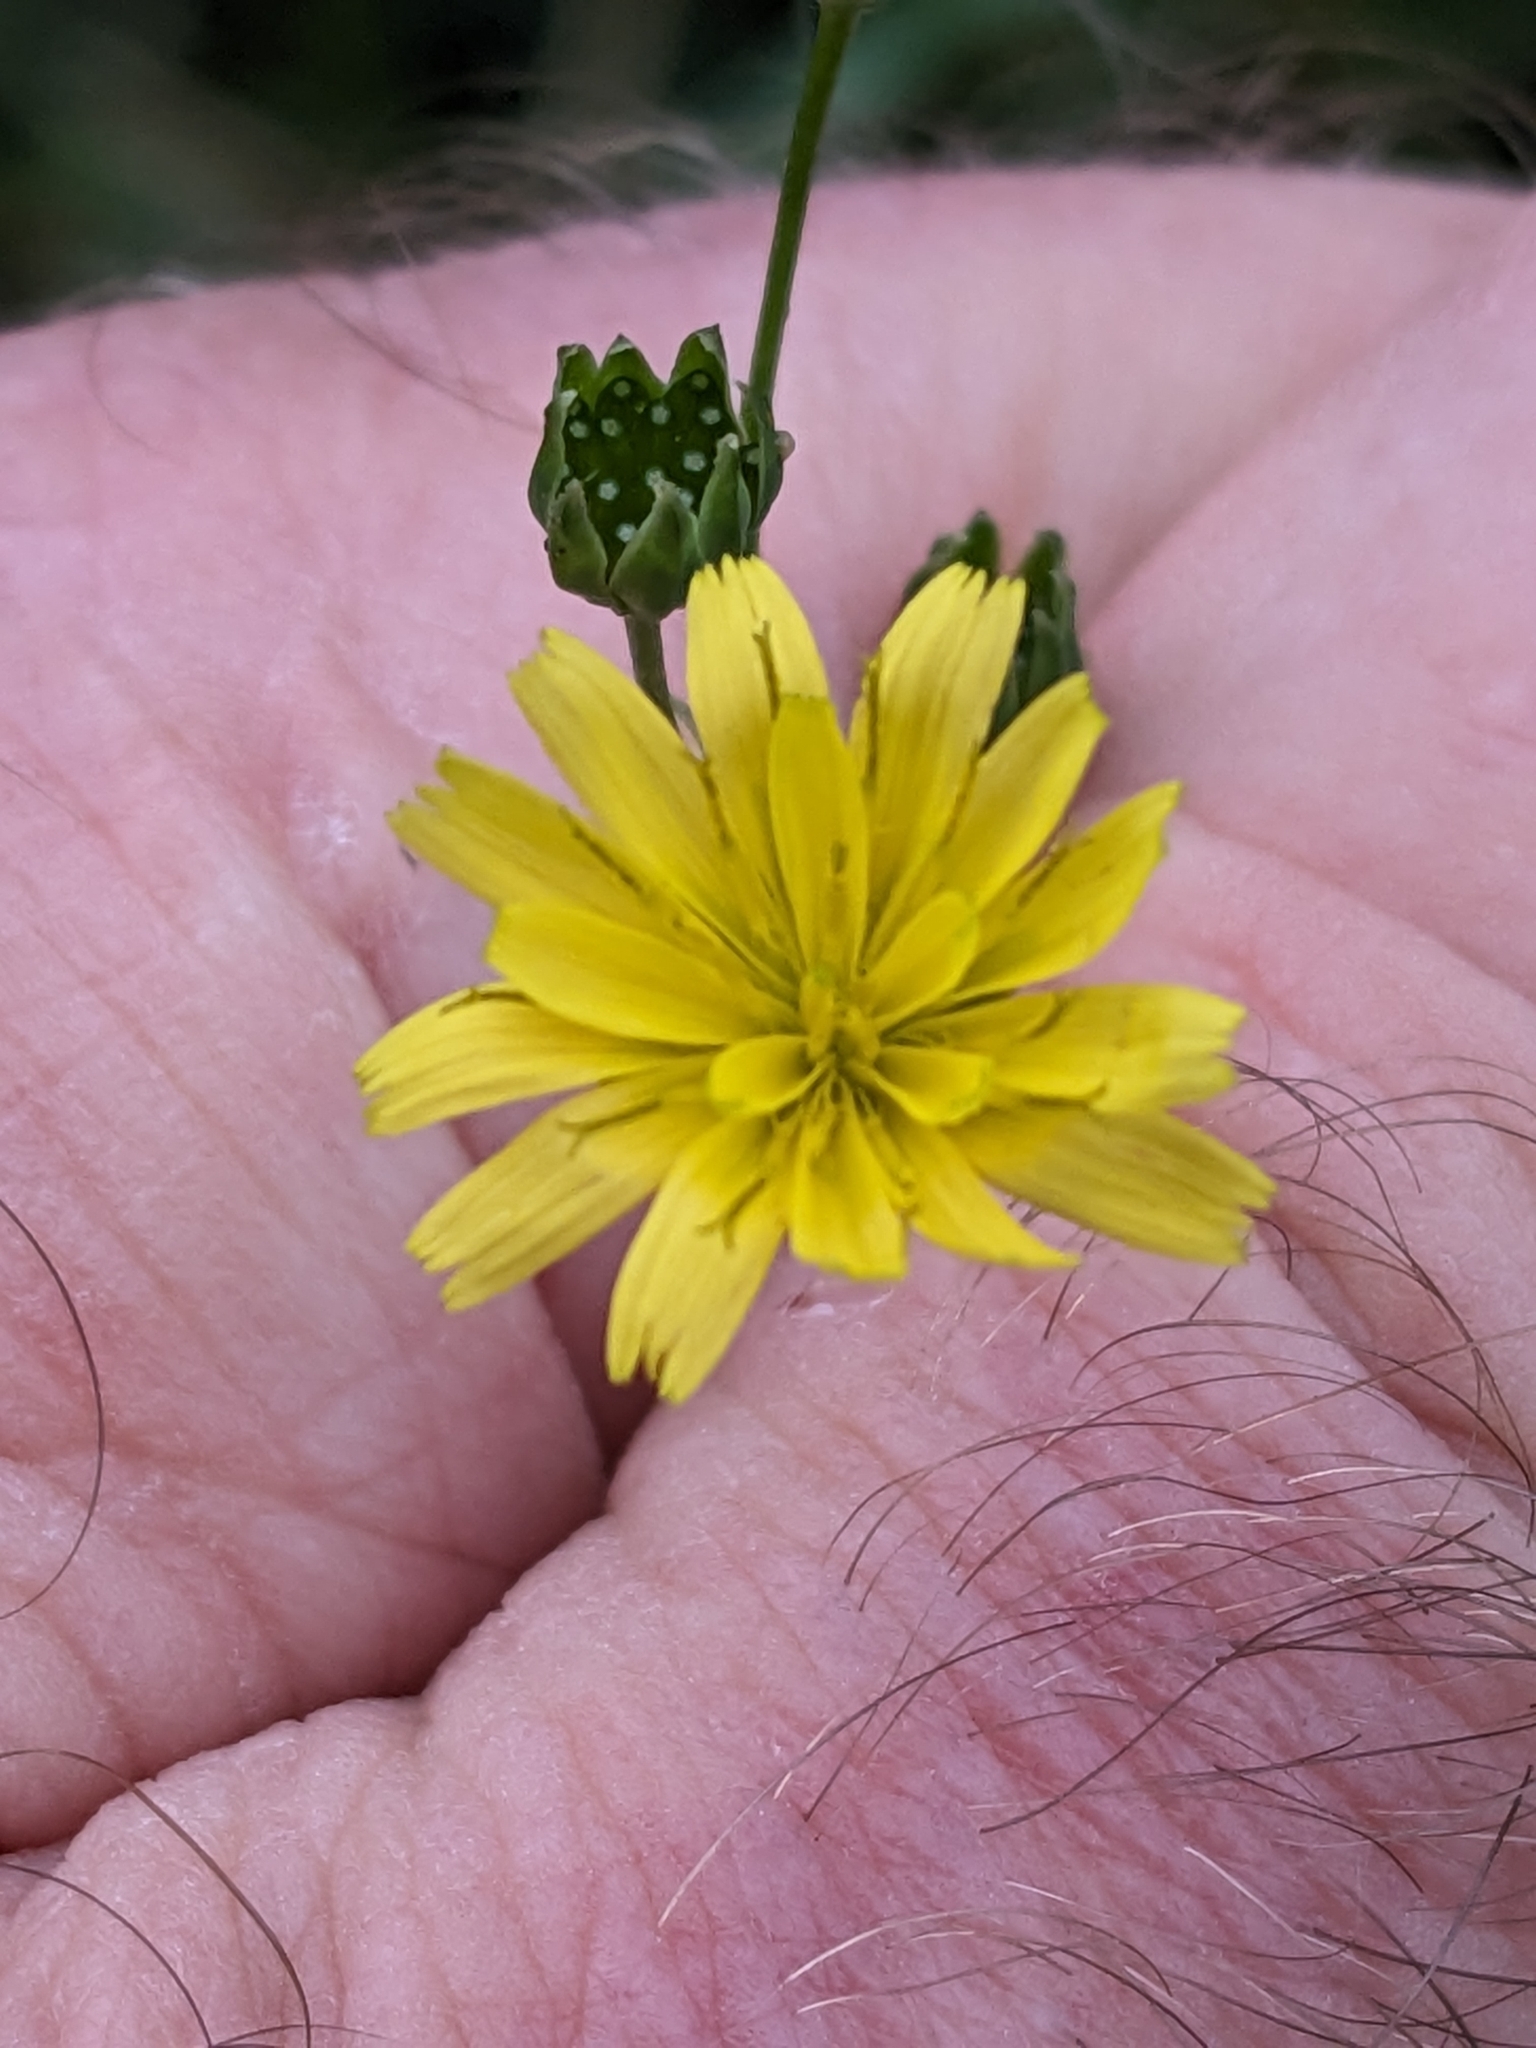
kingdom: Plantae
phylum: Tracheophyta
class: Magnoliopsida
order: Asterales
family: Asteraceae
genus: Lapsana
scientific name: Lapsana communis
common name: Nipplewort
